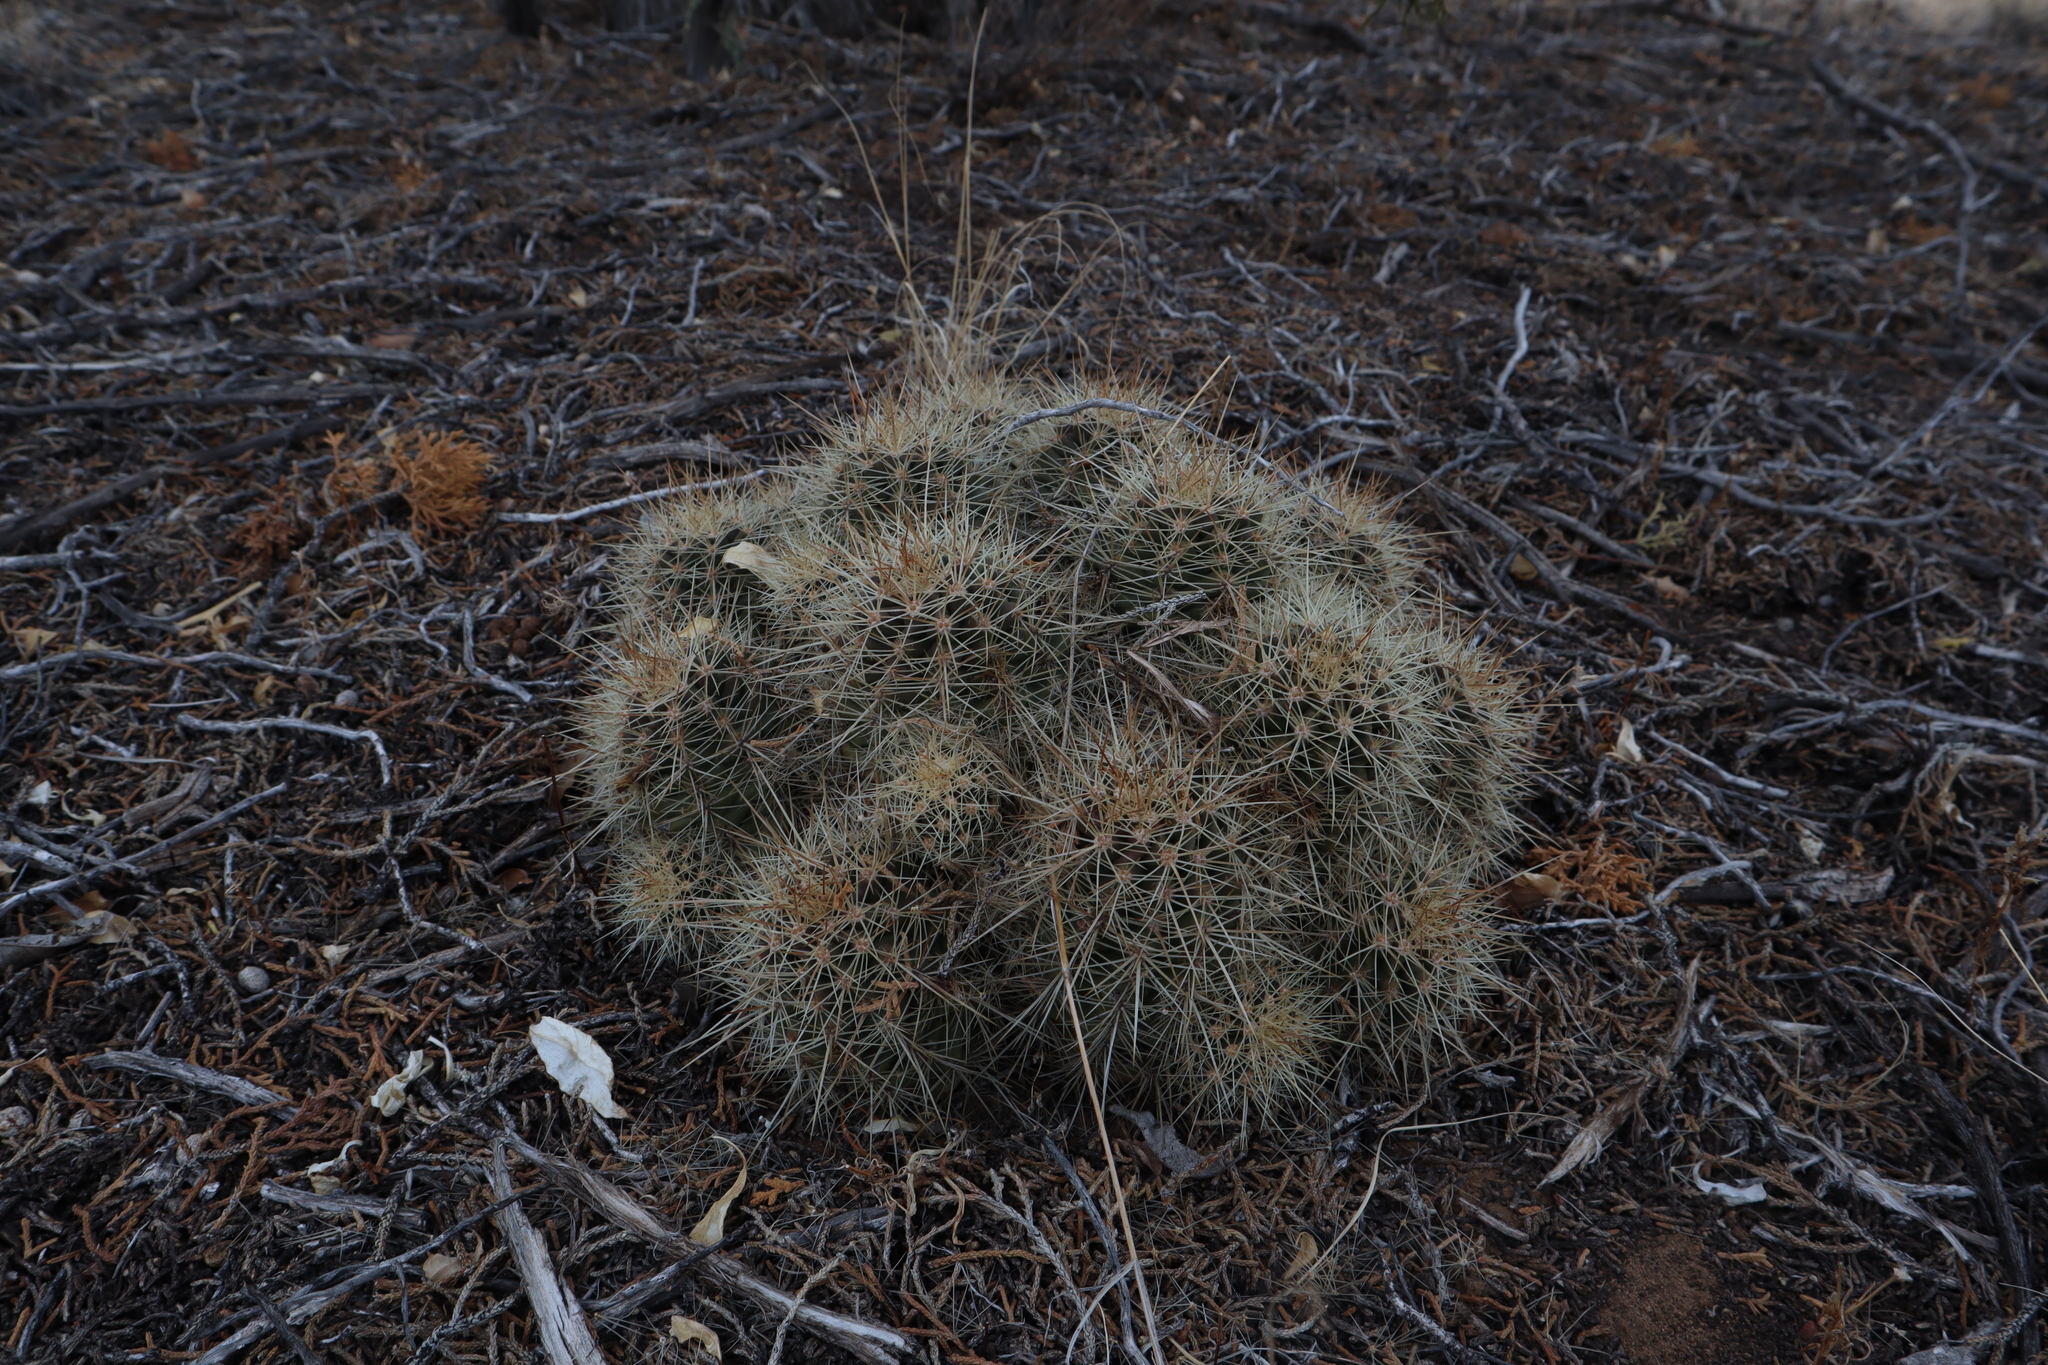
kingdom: Plantae
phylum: Tracheophyta
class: Magnoliopsida
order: Caryophyllales
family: Cactaceae
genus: Echinocereus
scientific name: Echinocereus coccineus
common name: Scarlet hedgehog cactus
